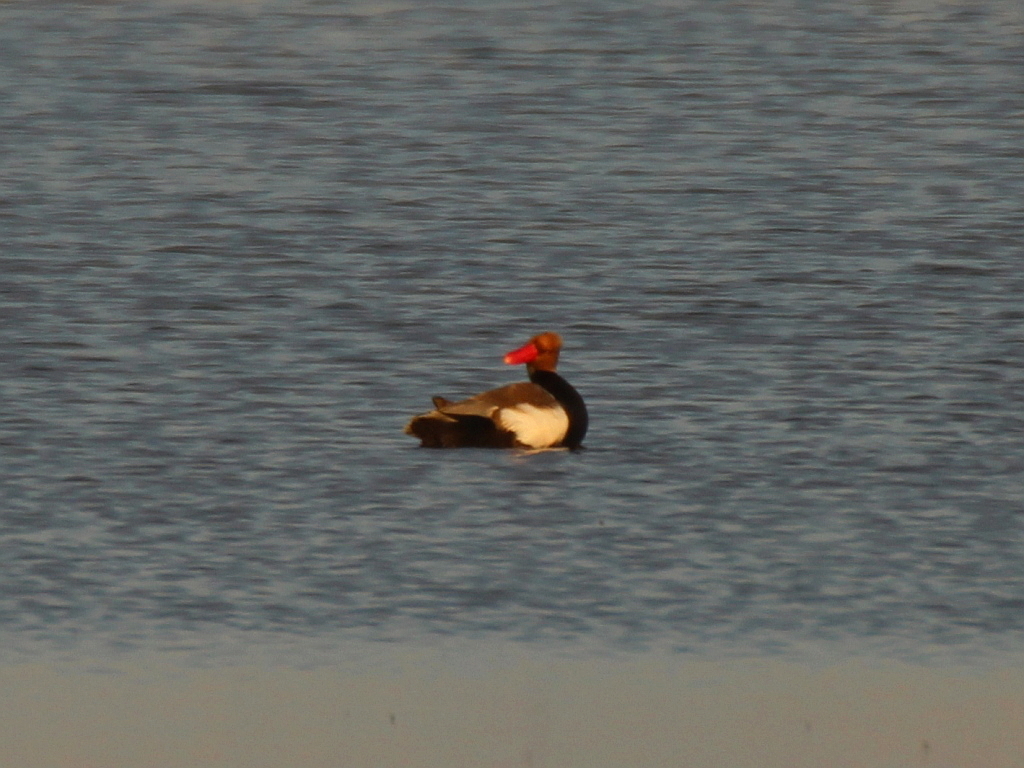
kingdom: Animalia
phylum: Chordata
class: Aves
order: Anseriformes
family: Anatidae
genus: Netta
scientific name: Netta rufina
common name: Red-crested pochard
